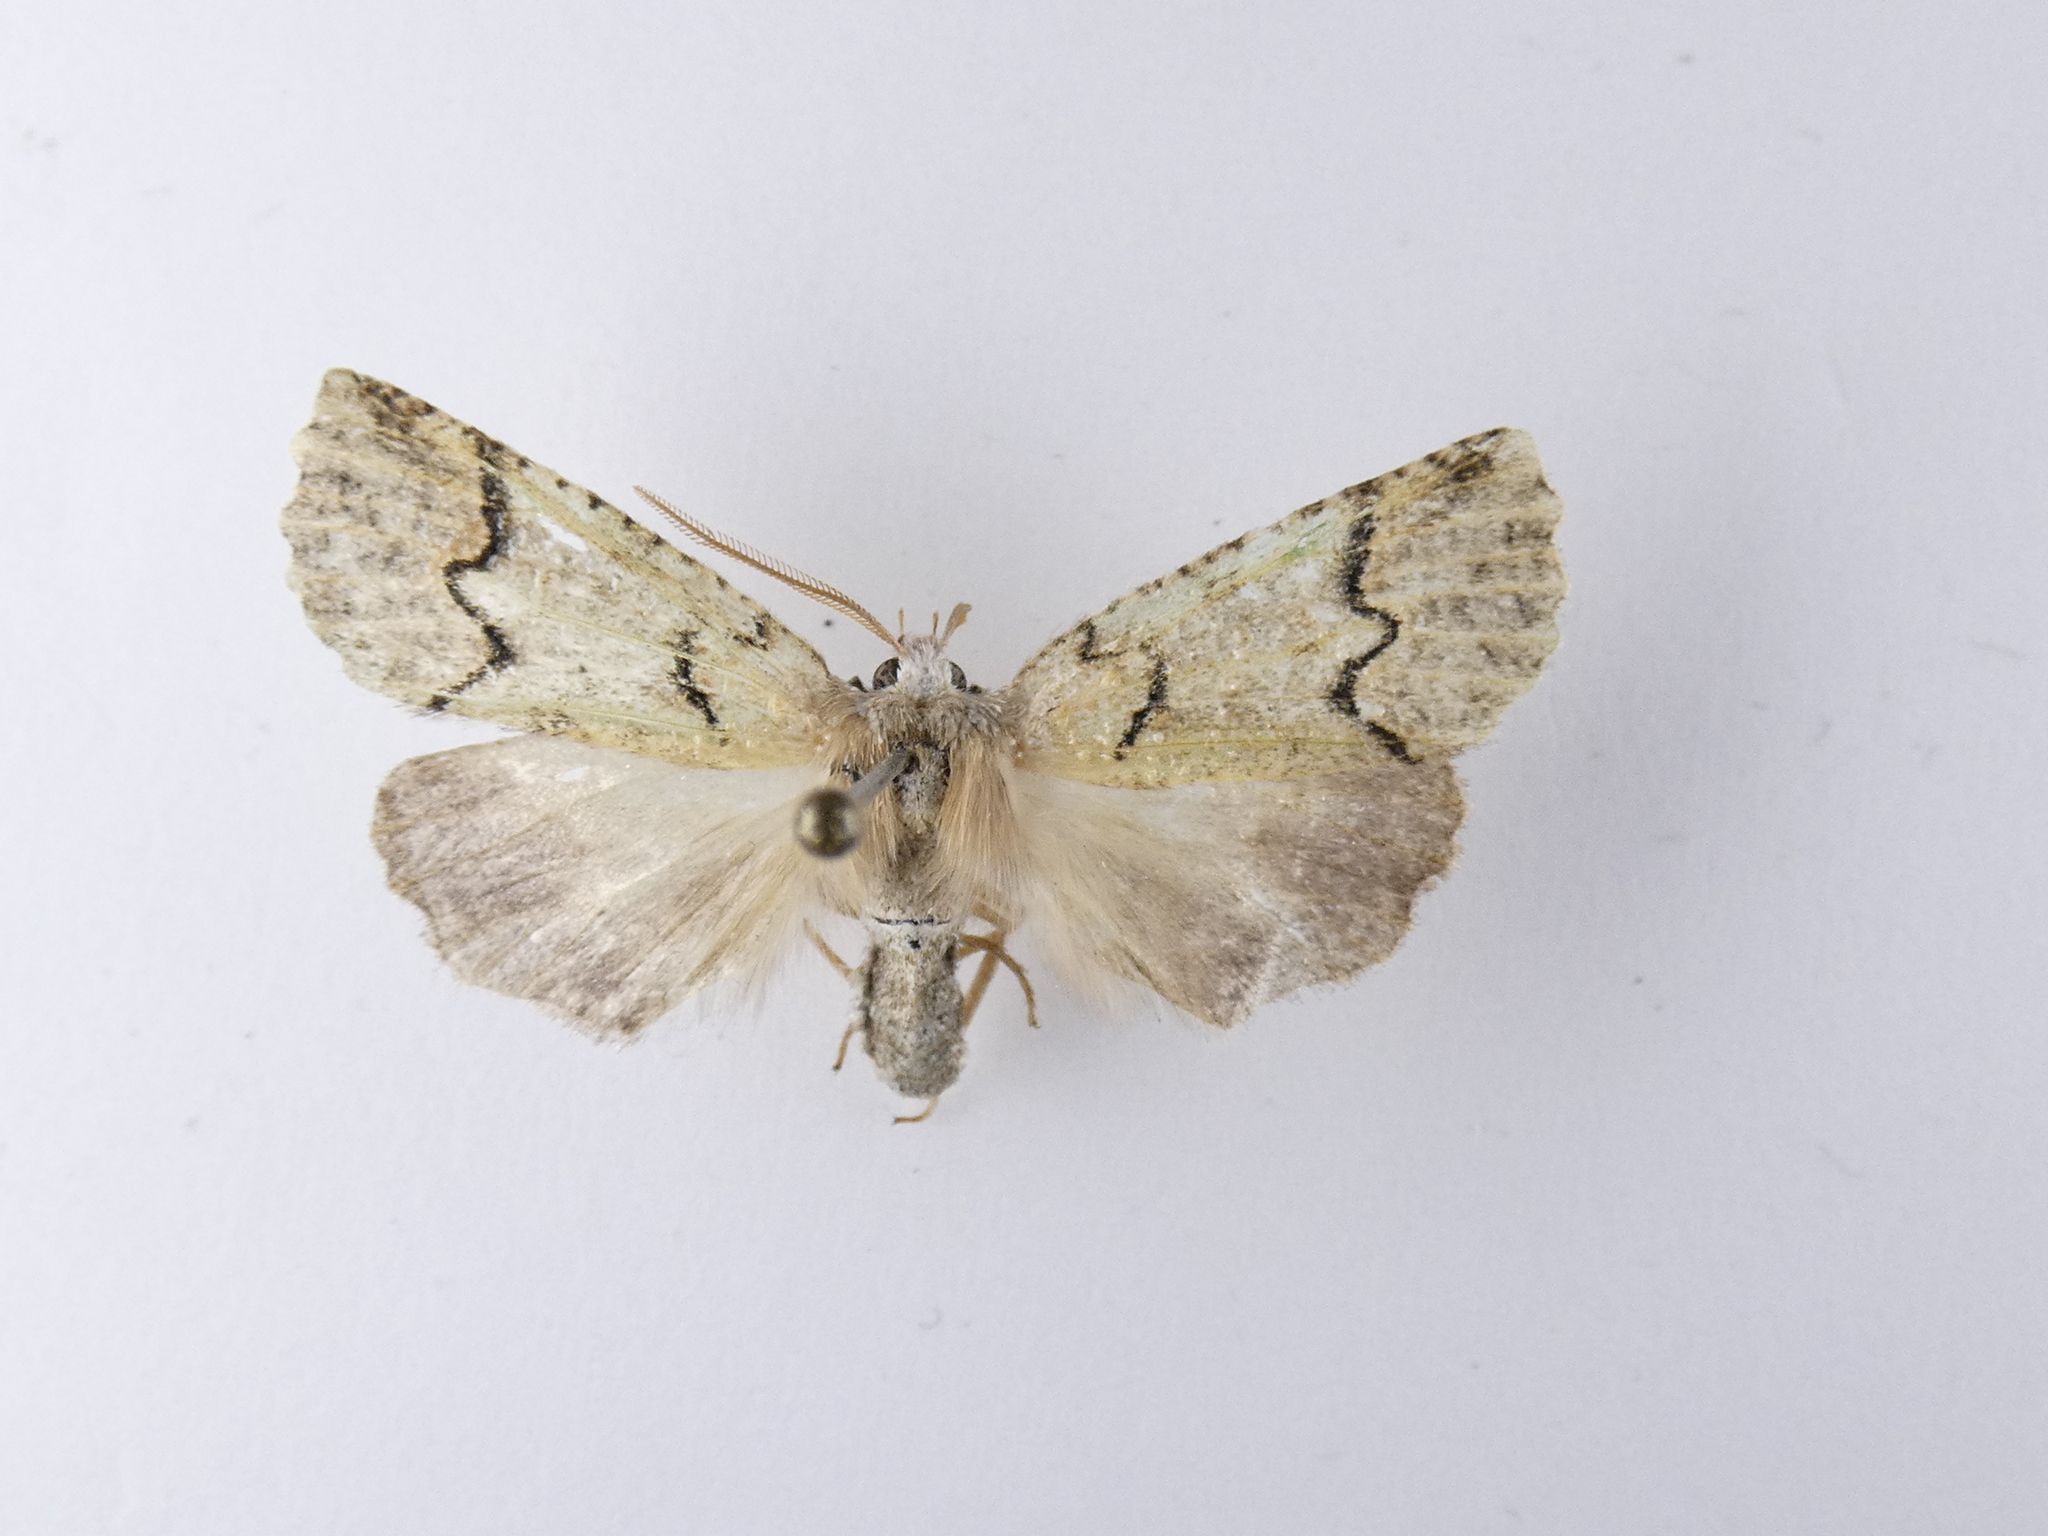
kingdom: Animalia
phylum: Arthropoda
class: Insecta
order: Lepidoptera
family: Geometridae
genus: Declana
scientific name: Declana floccosa
